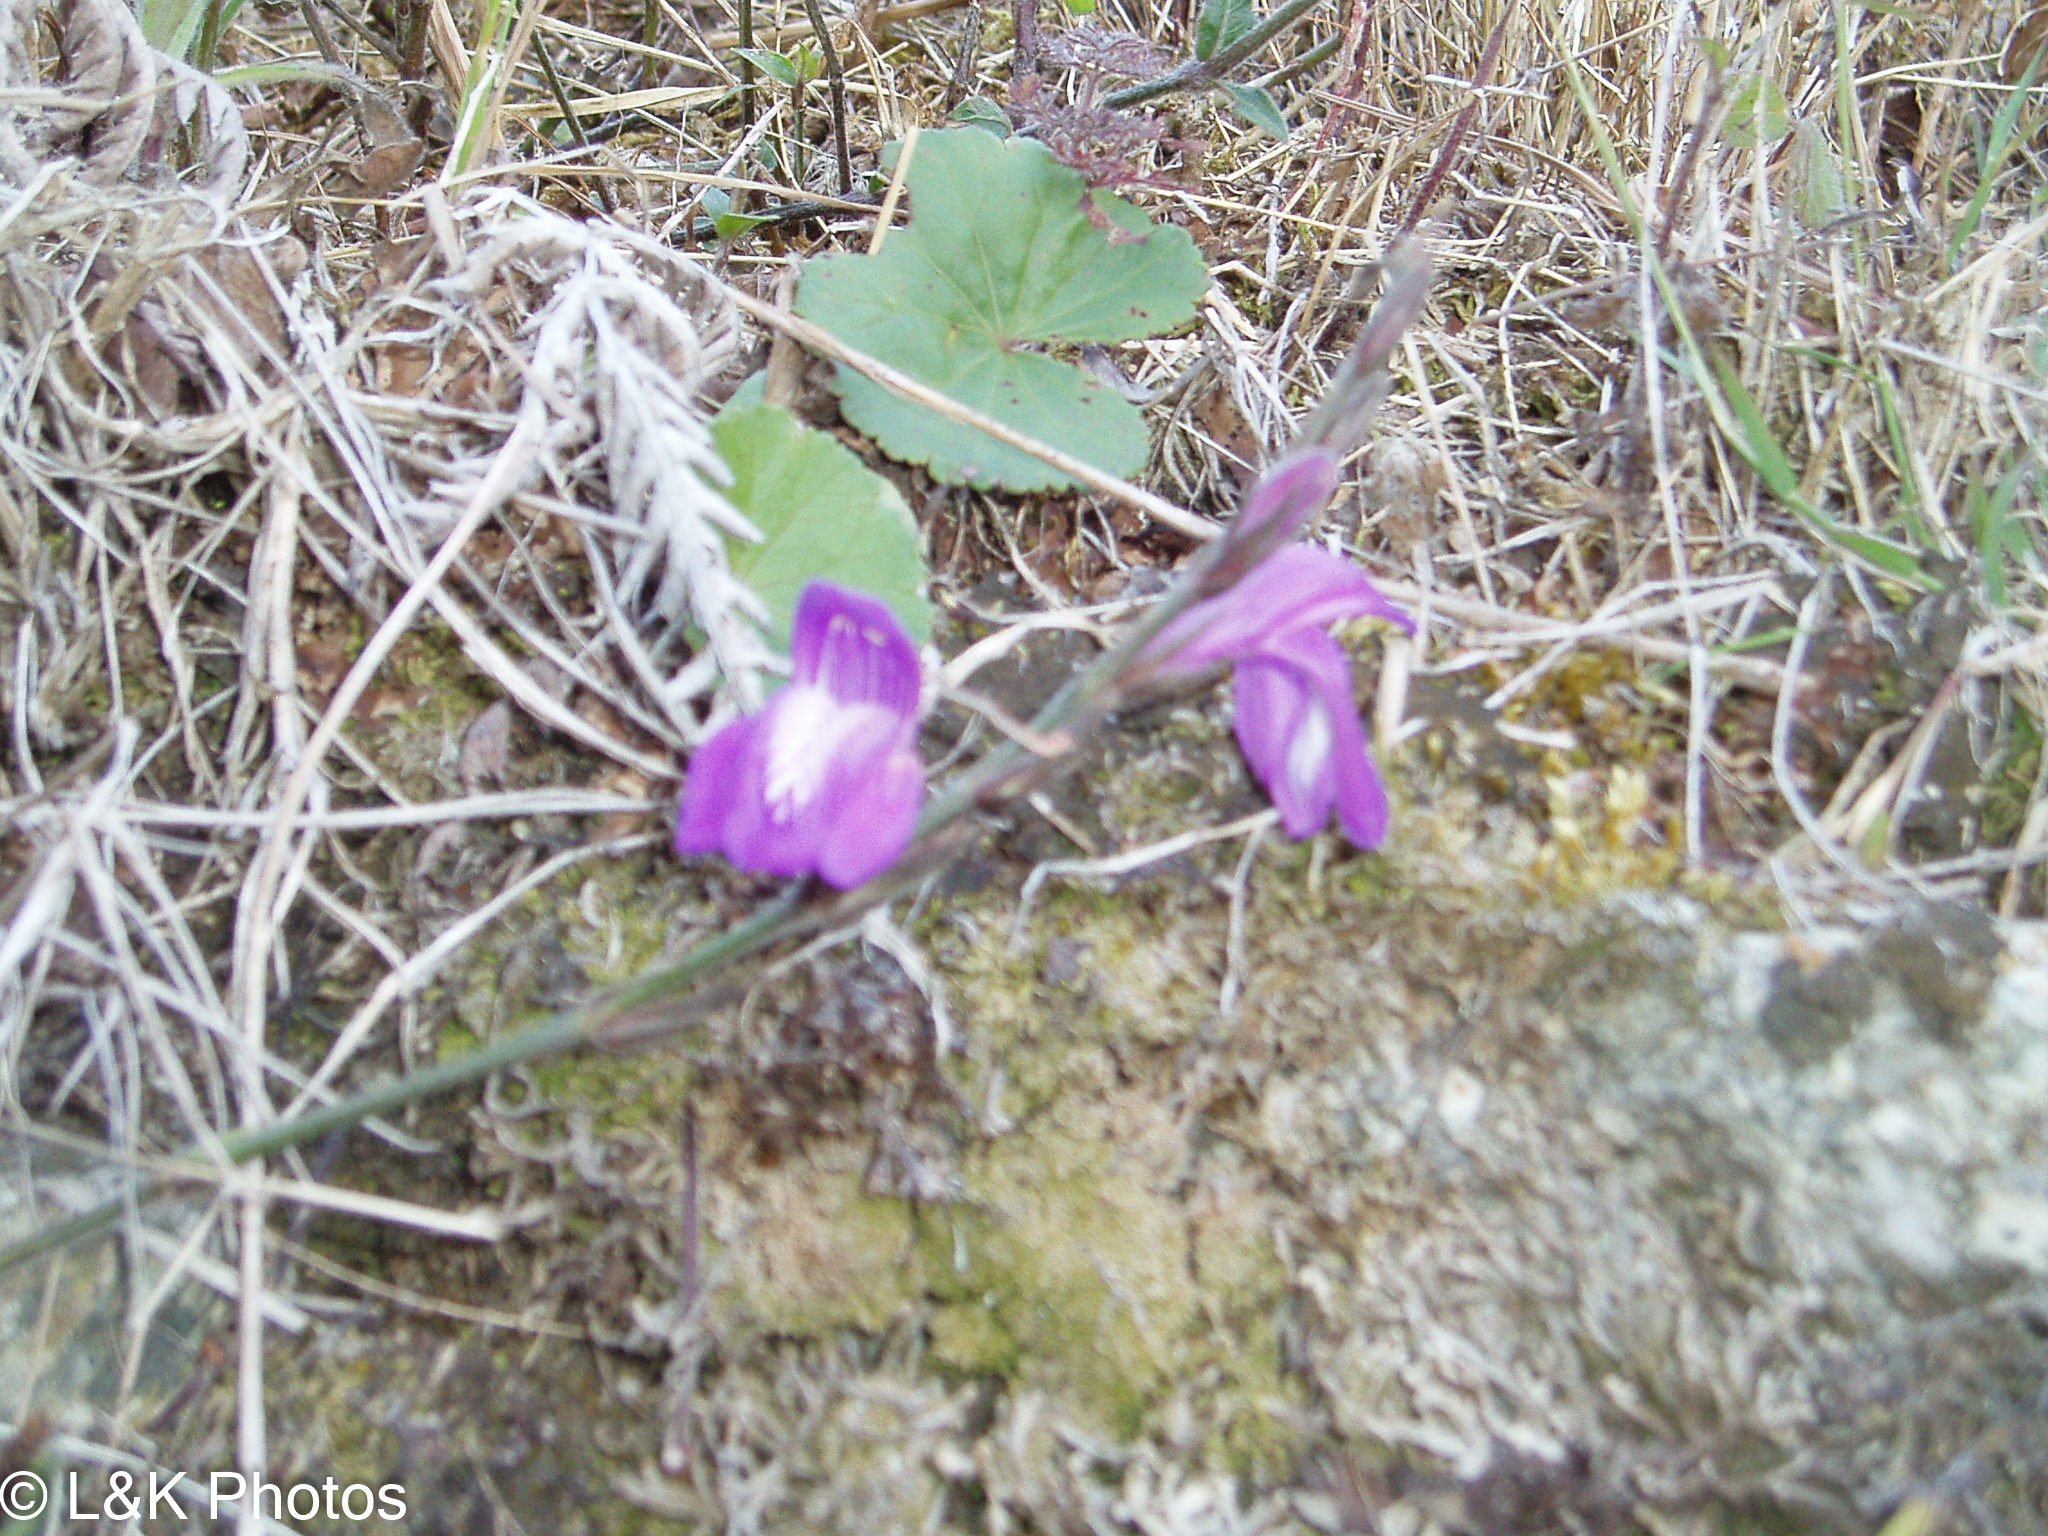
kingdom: Plantae
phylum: Tracheophyta
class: Magnoliopsida
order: Lamiales
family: Acanthaceae
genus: Justicia
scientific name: Justicia alpina
